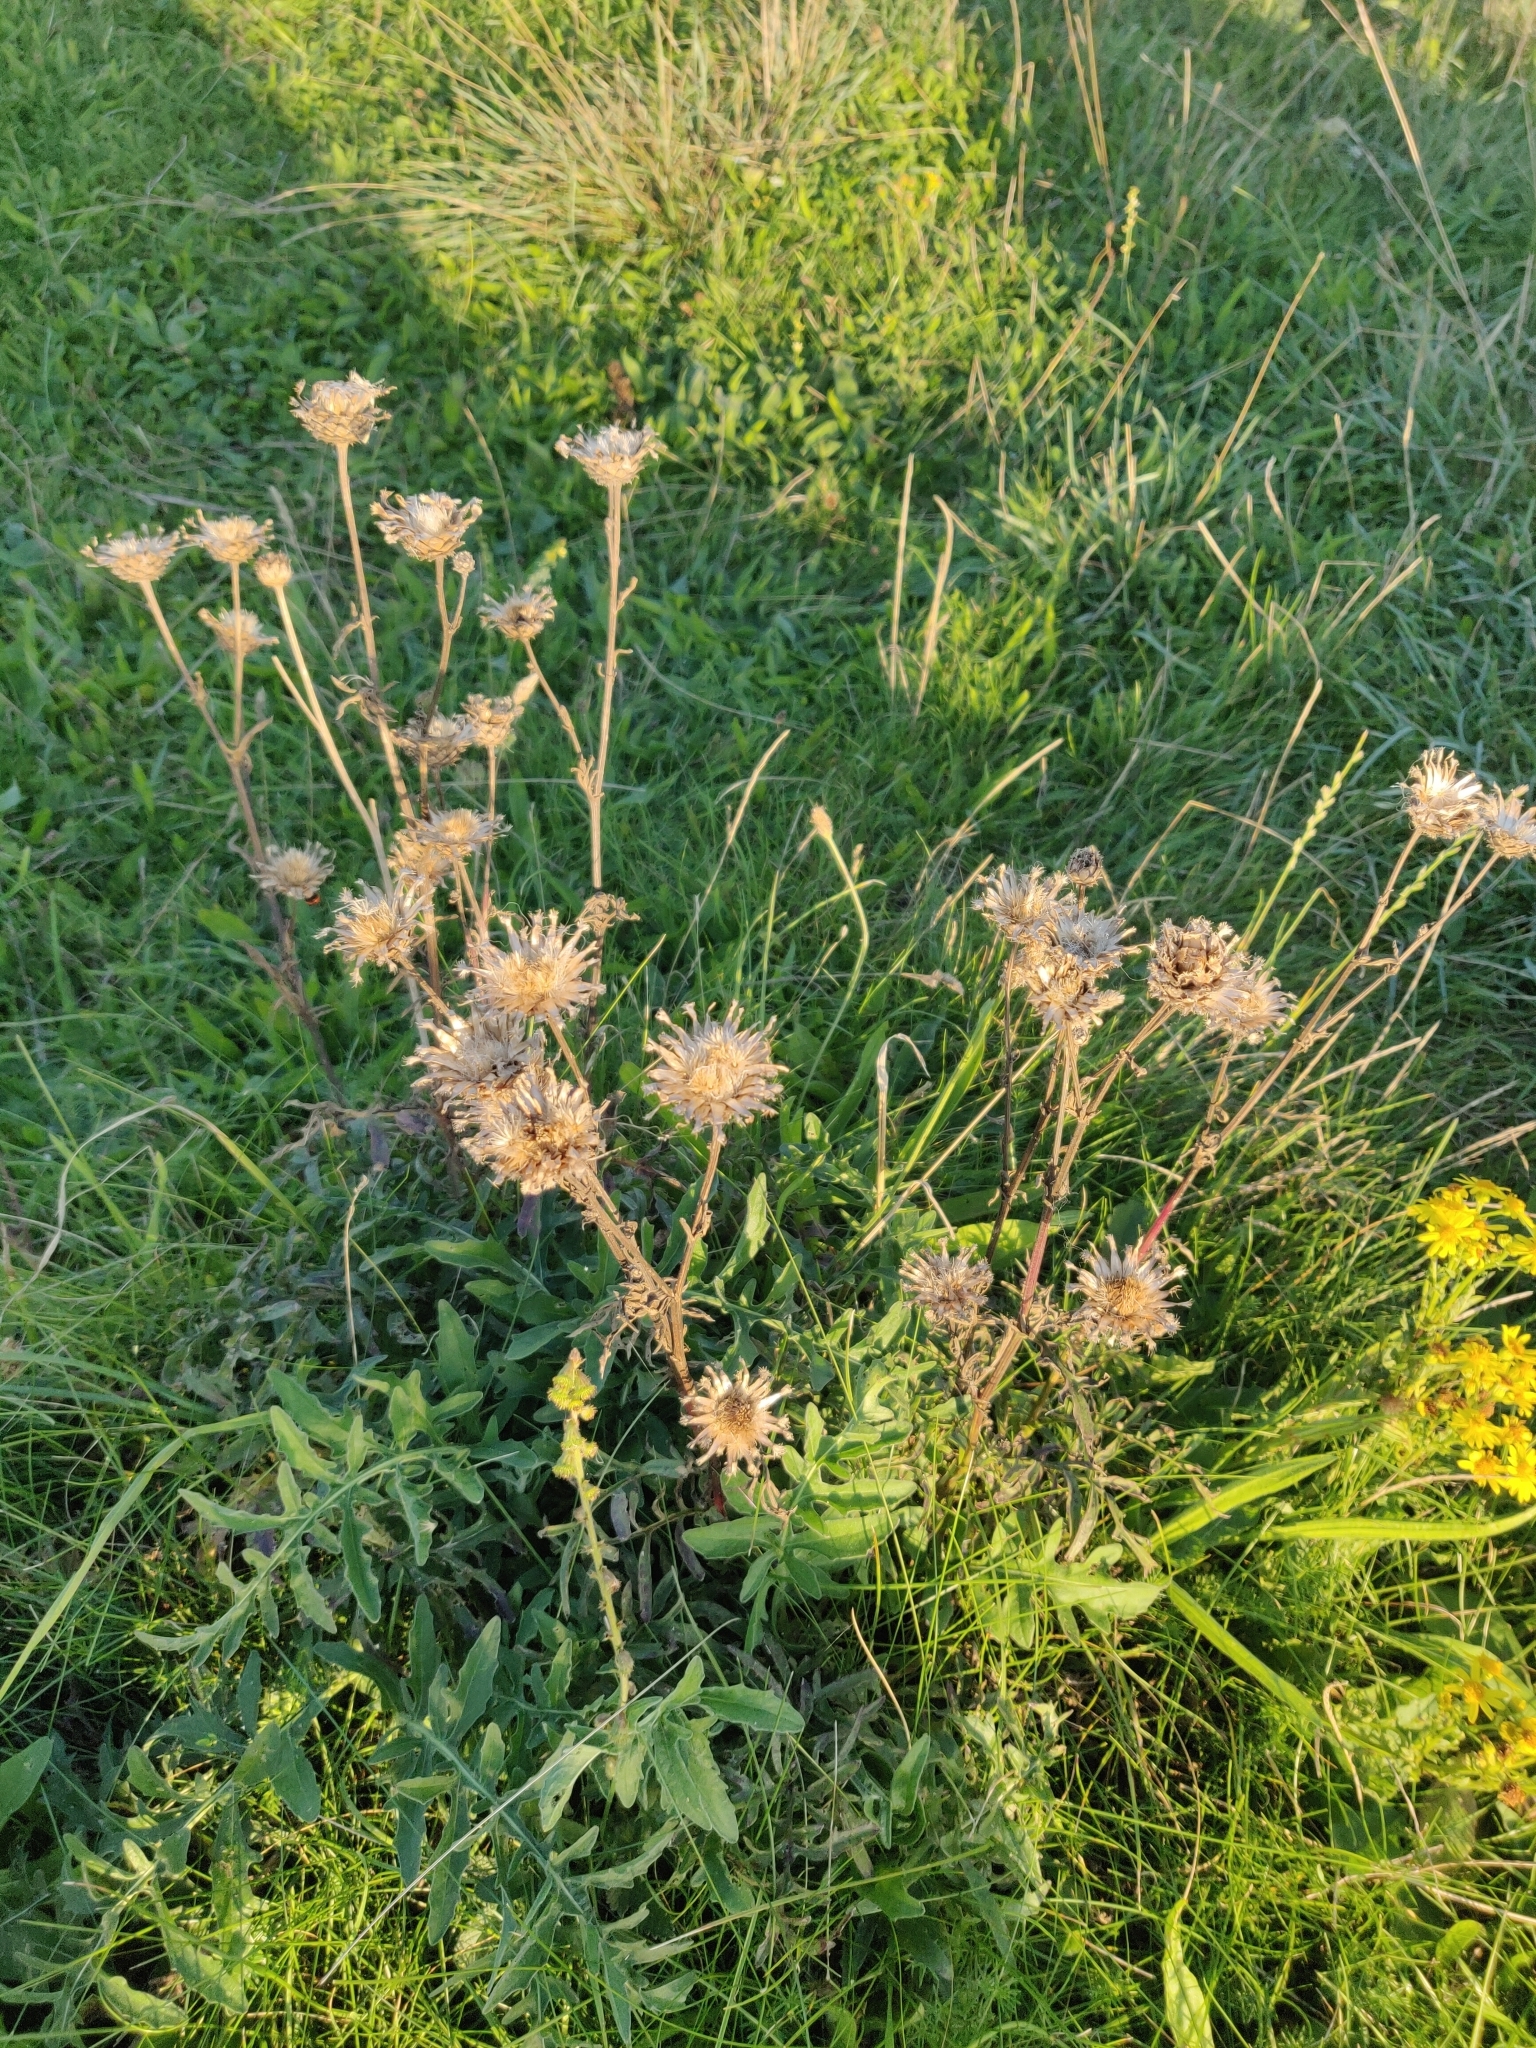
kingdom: Plantae
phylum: Tracheophyta
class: Magnoliopsida
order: Asterales
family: Asteraceae
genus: Centaurea
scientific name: Centaurea scabiosa
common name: Greater knapweed
